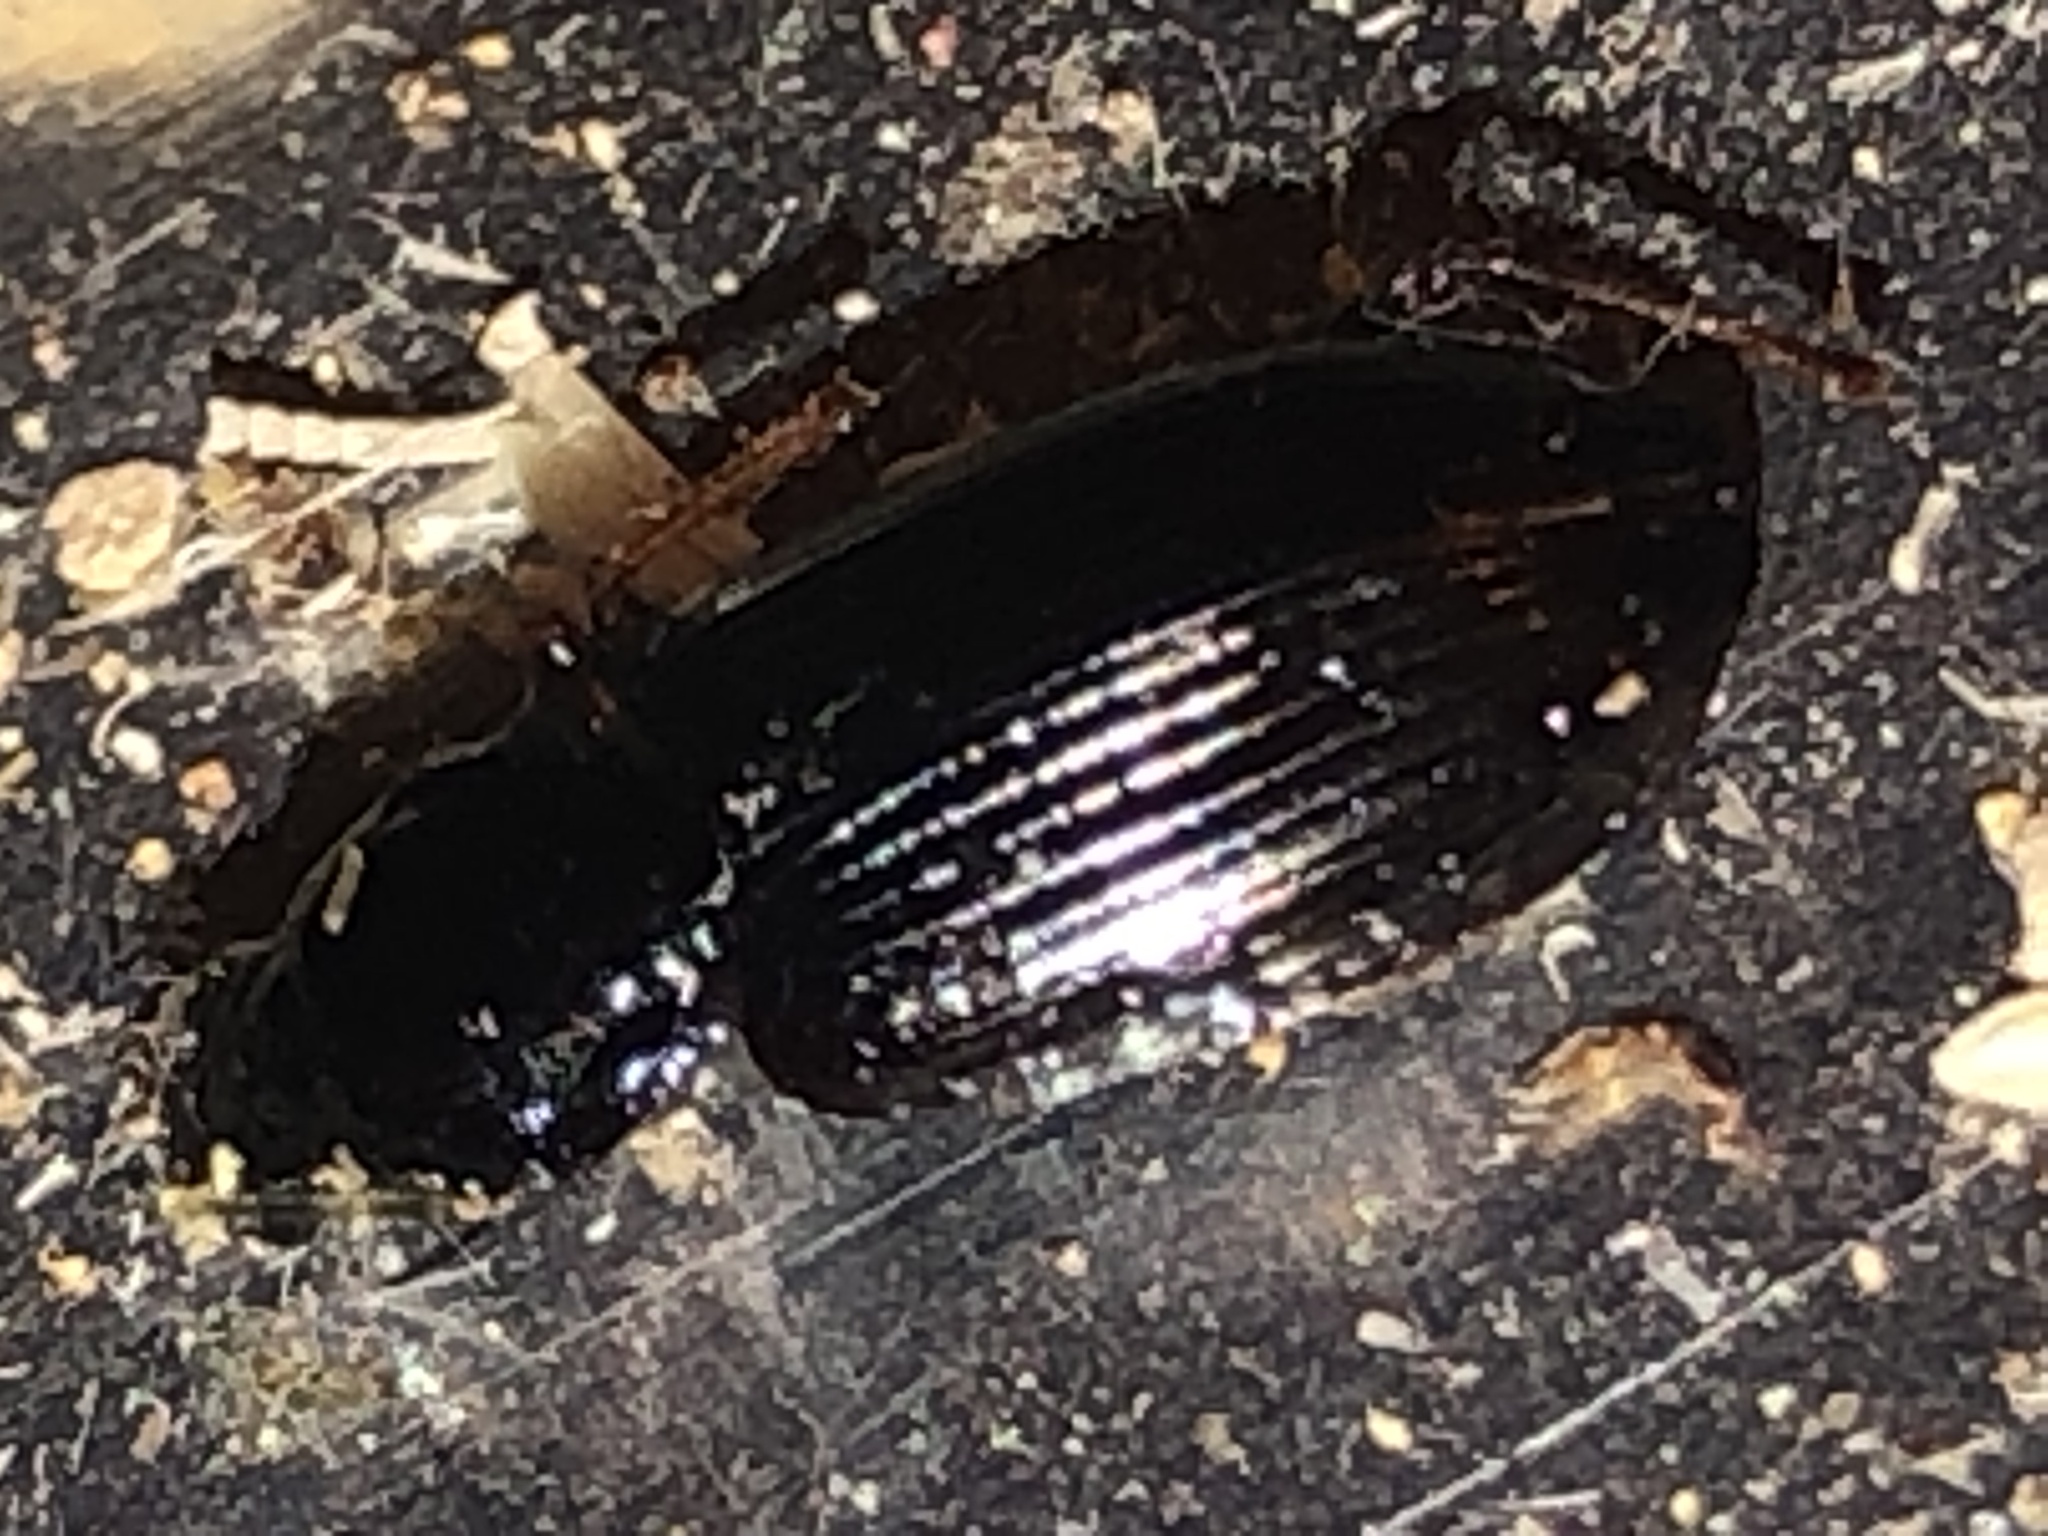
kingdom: Animalia
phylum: Arthropoda
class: Insecta
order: Coleoptera
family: Carabidae
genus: Agonum
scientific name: Agonum punctiforme
